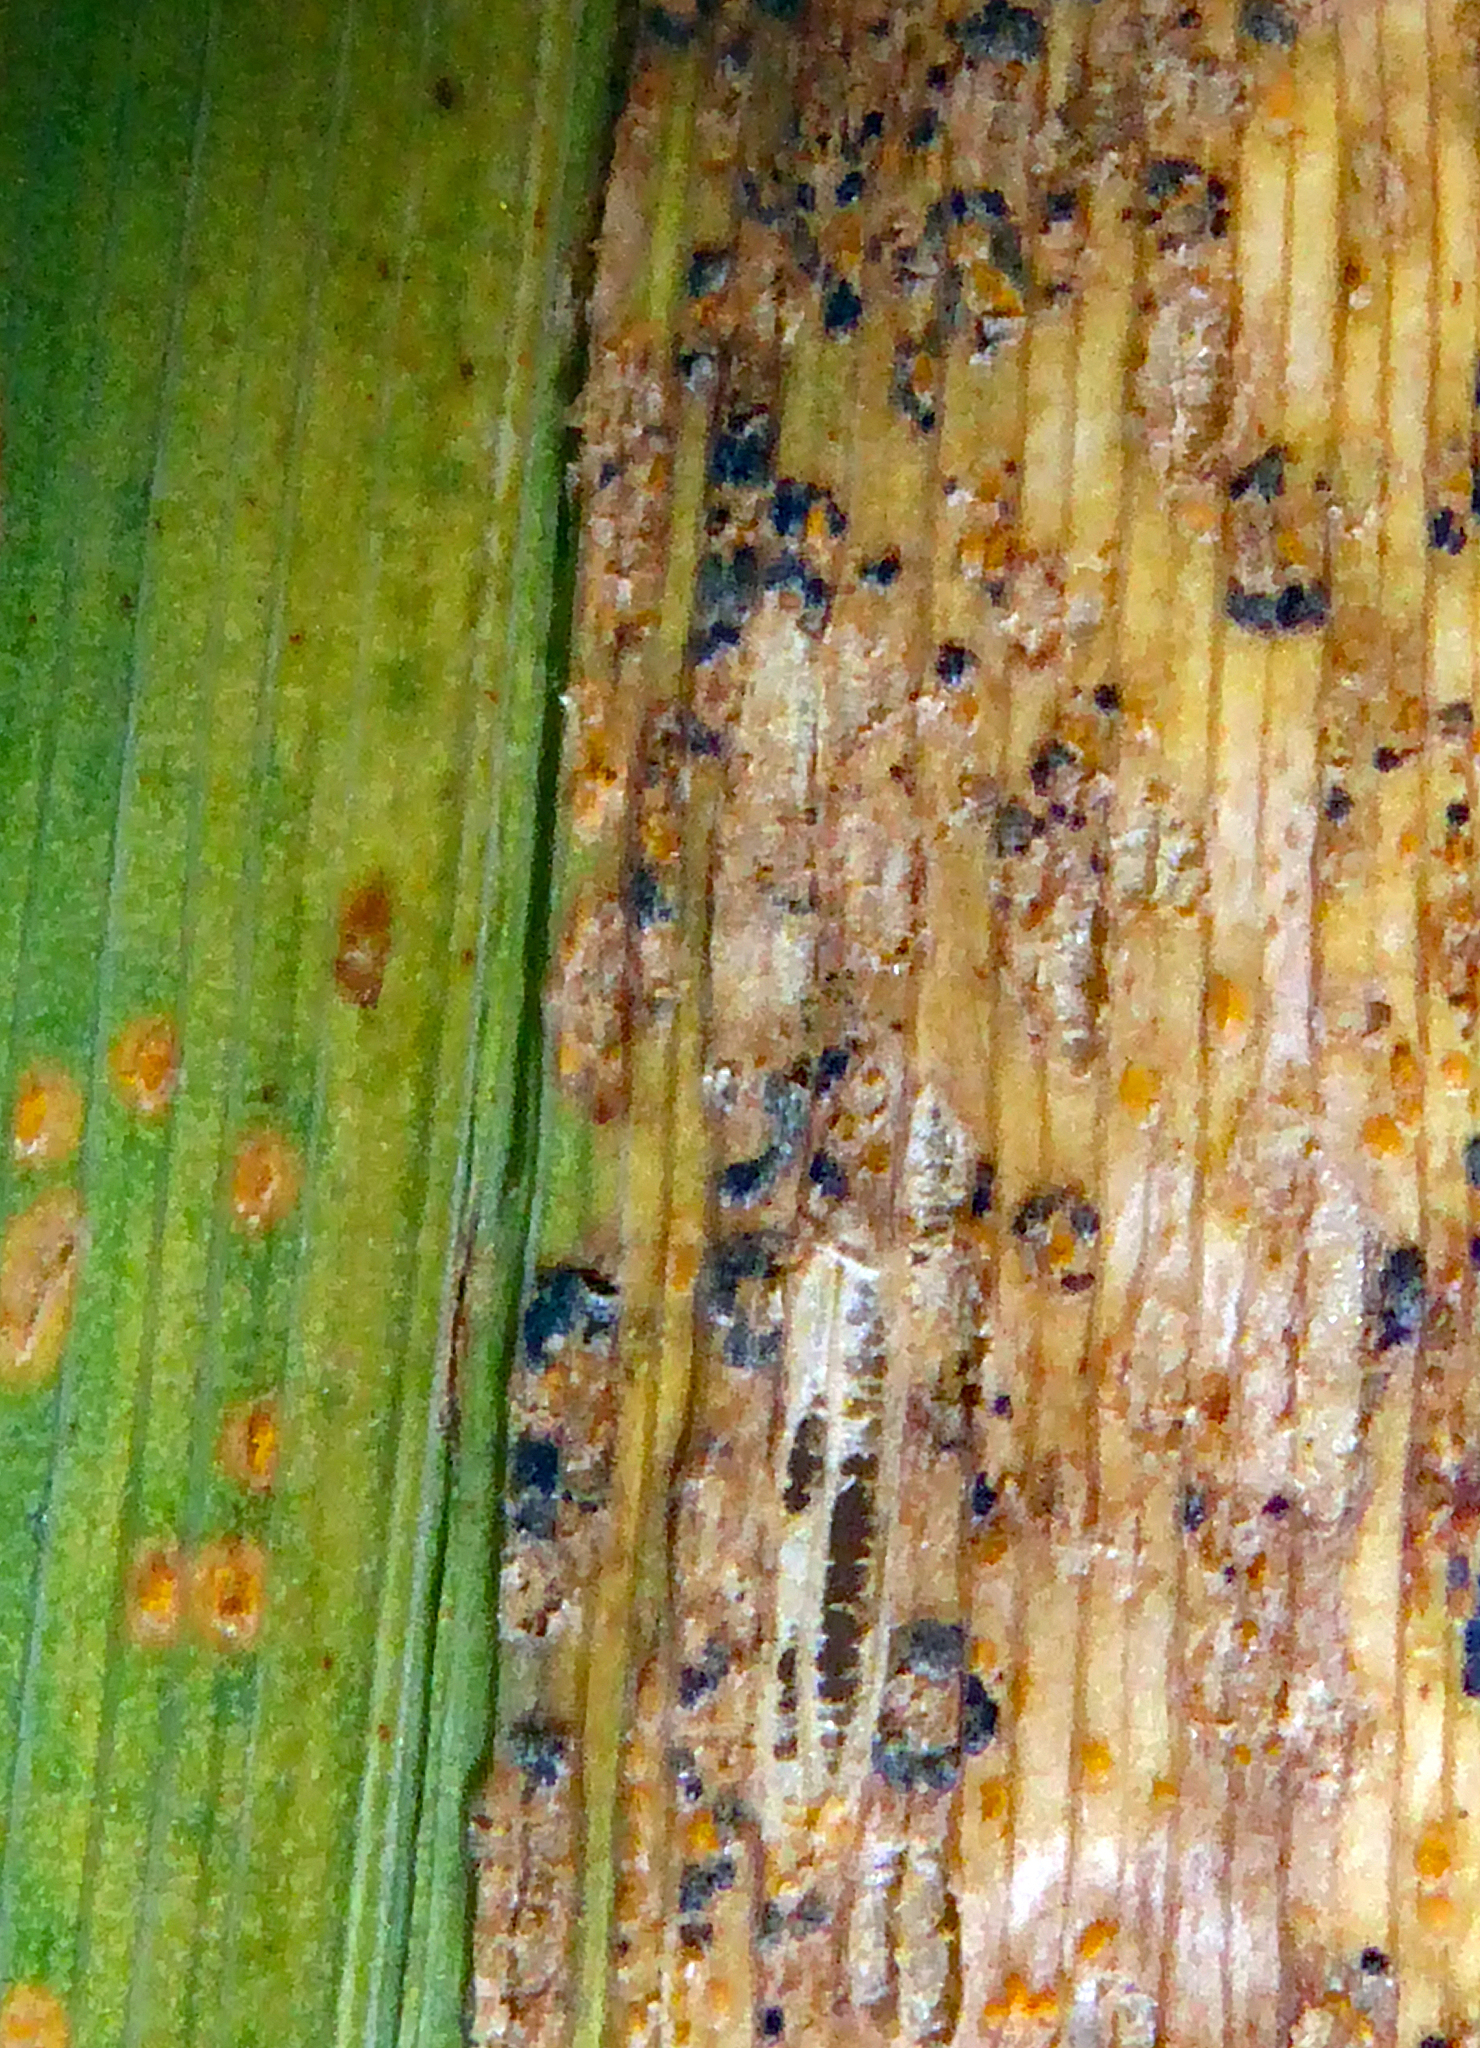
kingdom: Fungi
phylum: Ascomycota
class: Dothideomycetes
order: Pleosporales
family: Phaeosphaeriaceae
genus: Sphaerellopsis
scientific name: Sphaerellopsis filum
